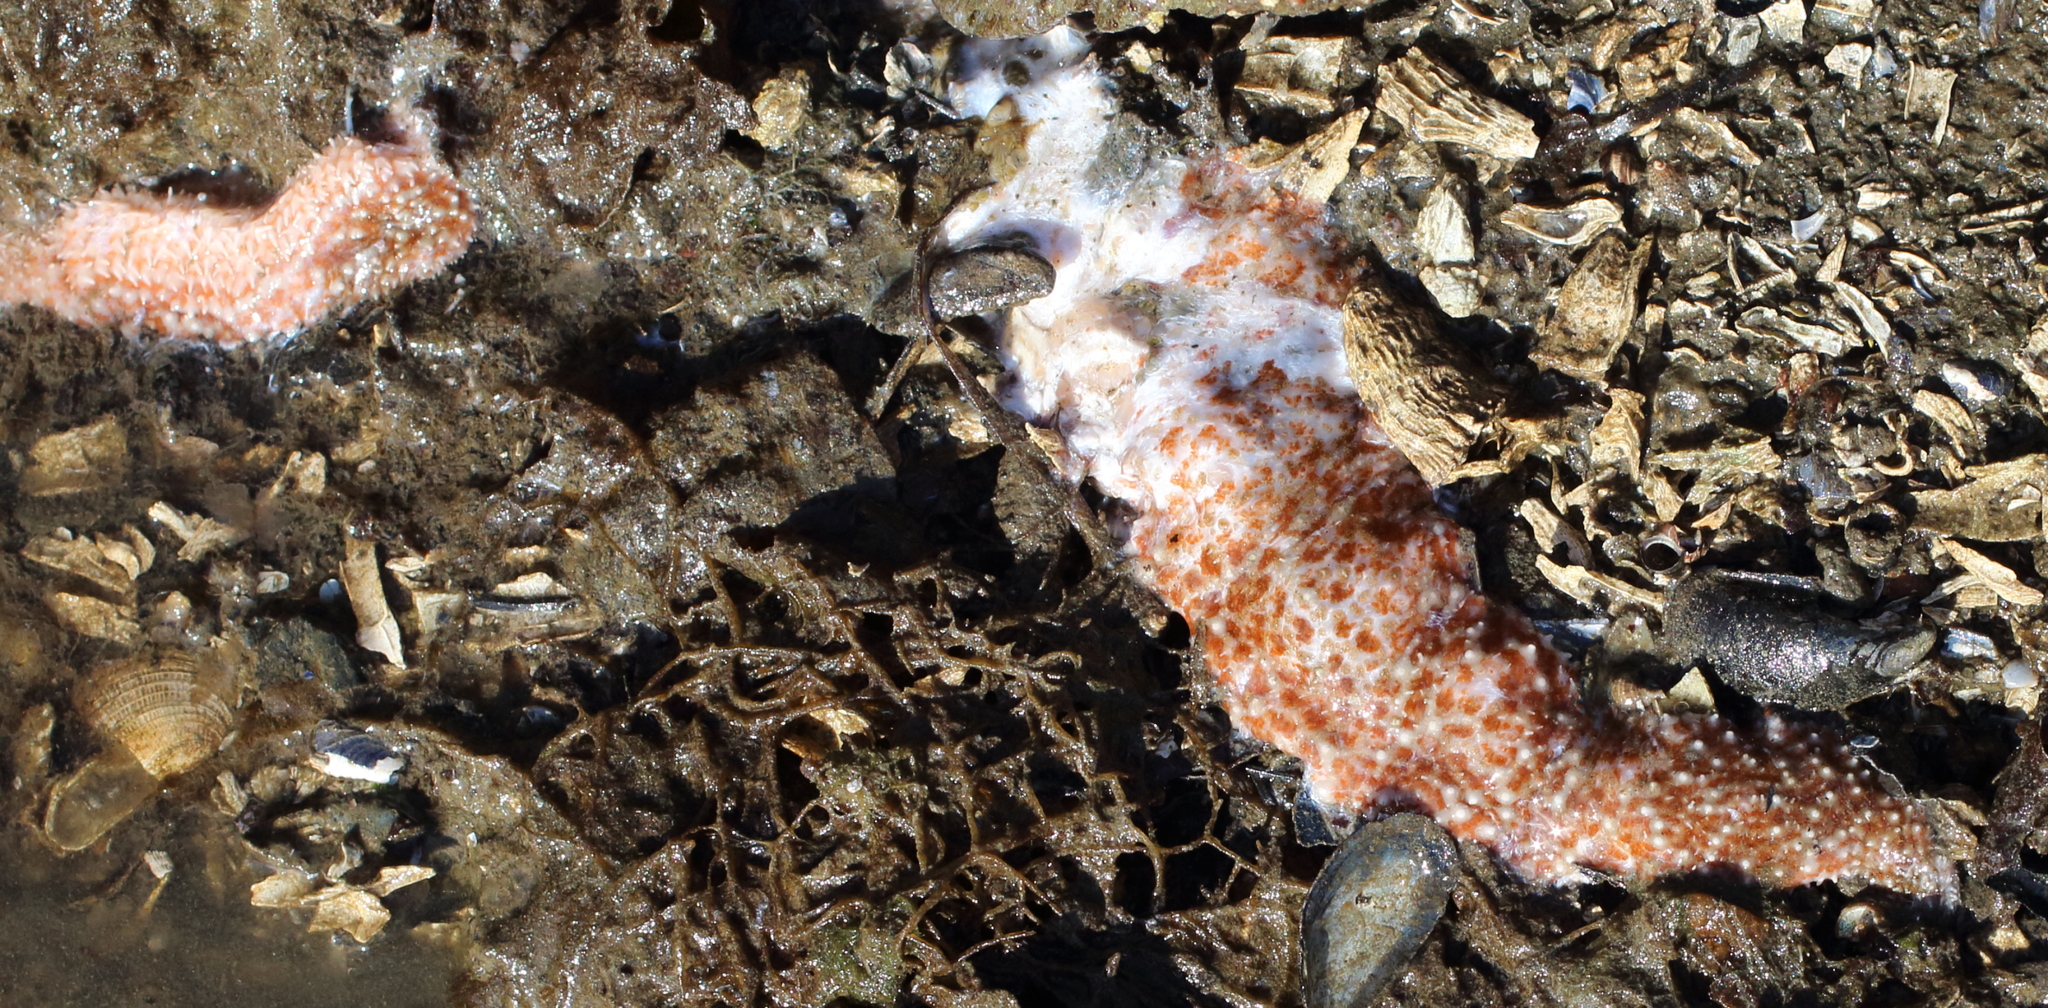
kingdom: Animalia
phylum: Echinodermata
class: Asteroidea
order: Forcipulatida
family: Asteriidae
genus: Evasterias
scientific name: Evasterias troschelii
